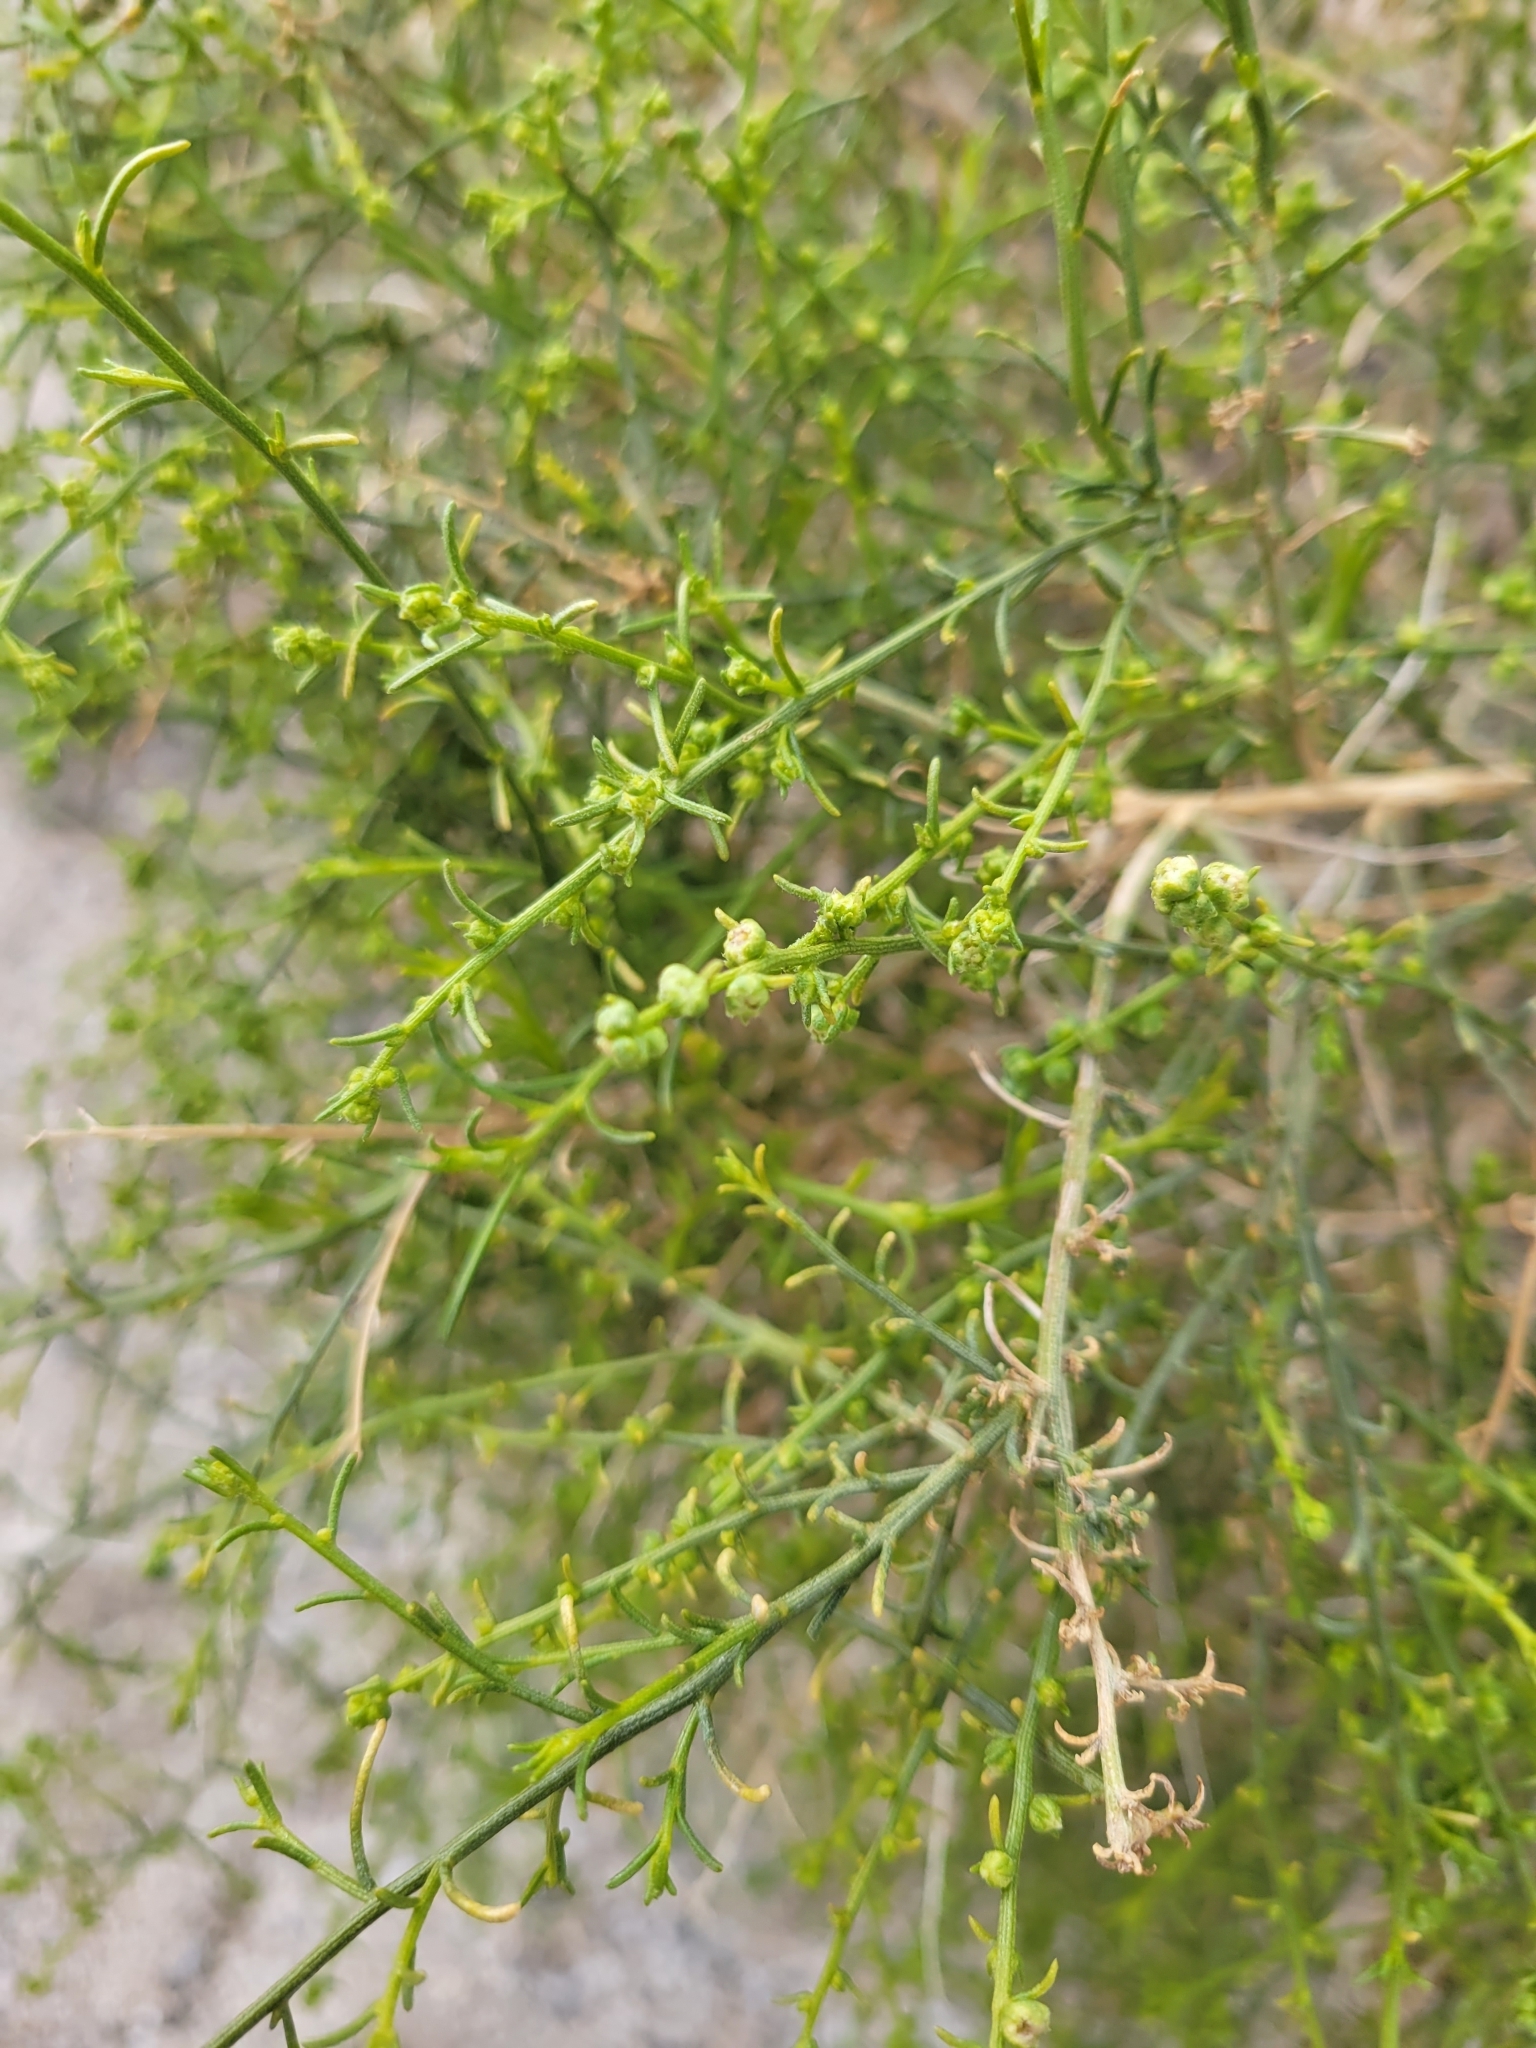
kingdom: Plantae
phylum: Tracheophyta
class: Magnoliopsida
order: Asterales
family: Asteraceae
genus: Ambrosia
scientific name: Ambrosia salsola
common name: Burrobrush
